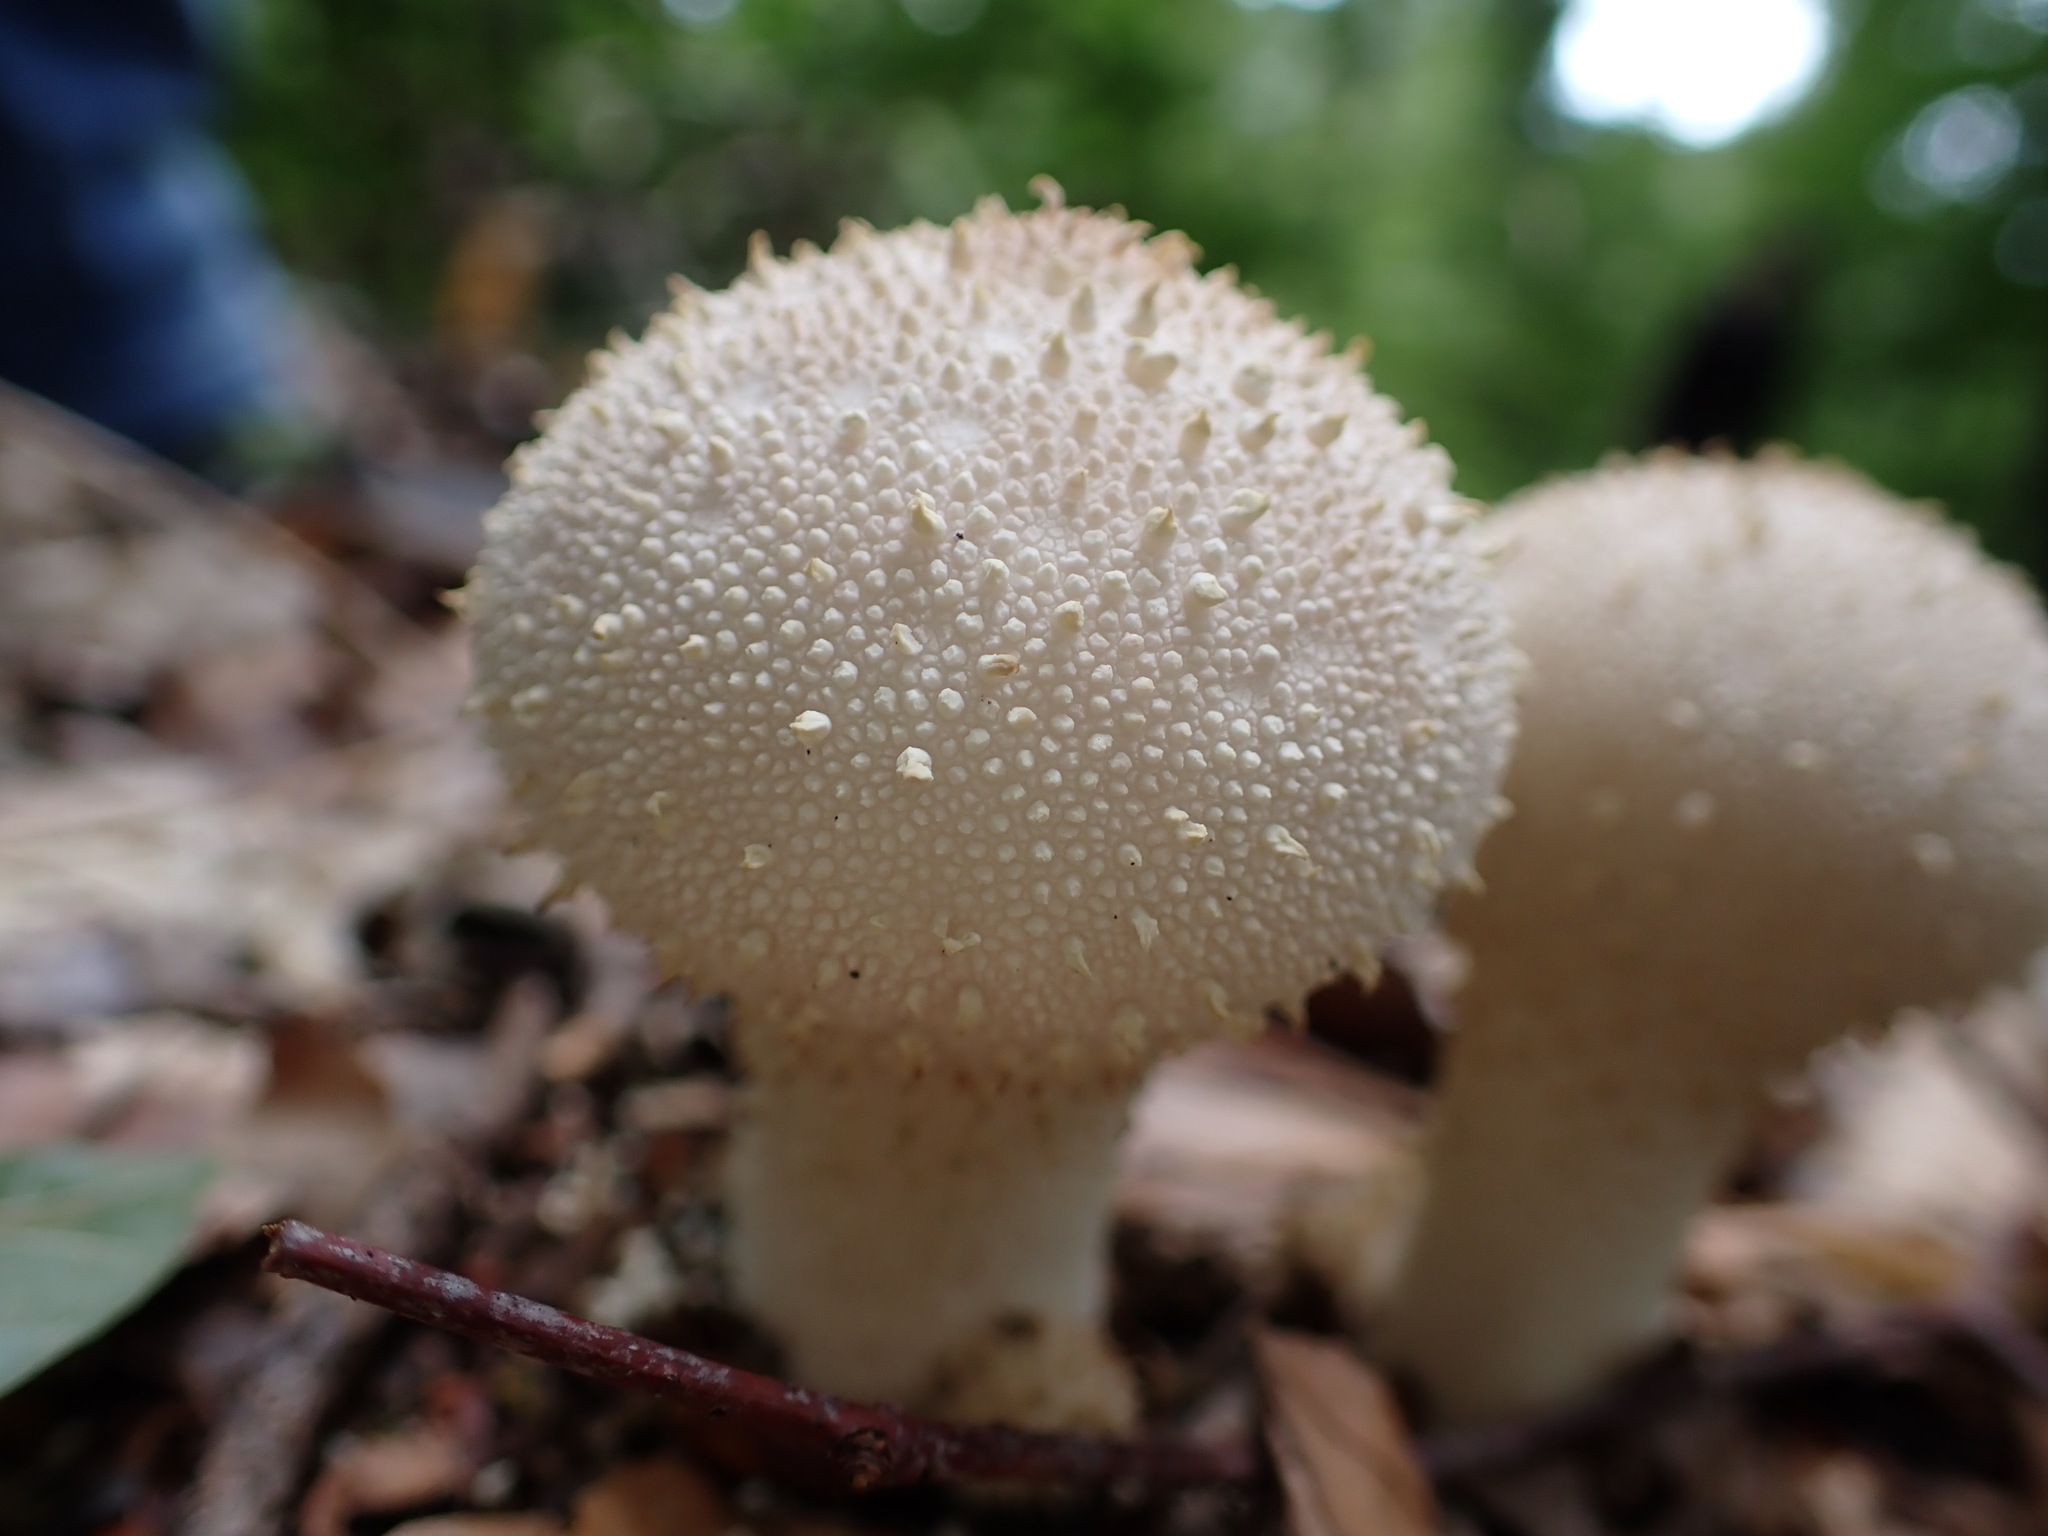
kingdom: Fungi
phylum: Basidiomycota
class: Agaricomycetes
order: Agaricales
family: Lycoperdaceae
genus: Lycoperdon
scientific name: Lycoperdon perlatum
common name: Common puffball
